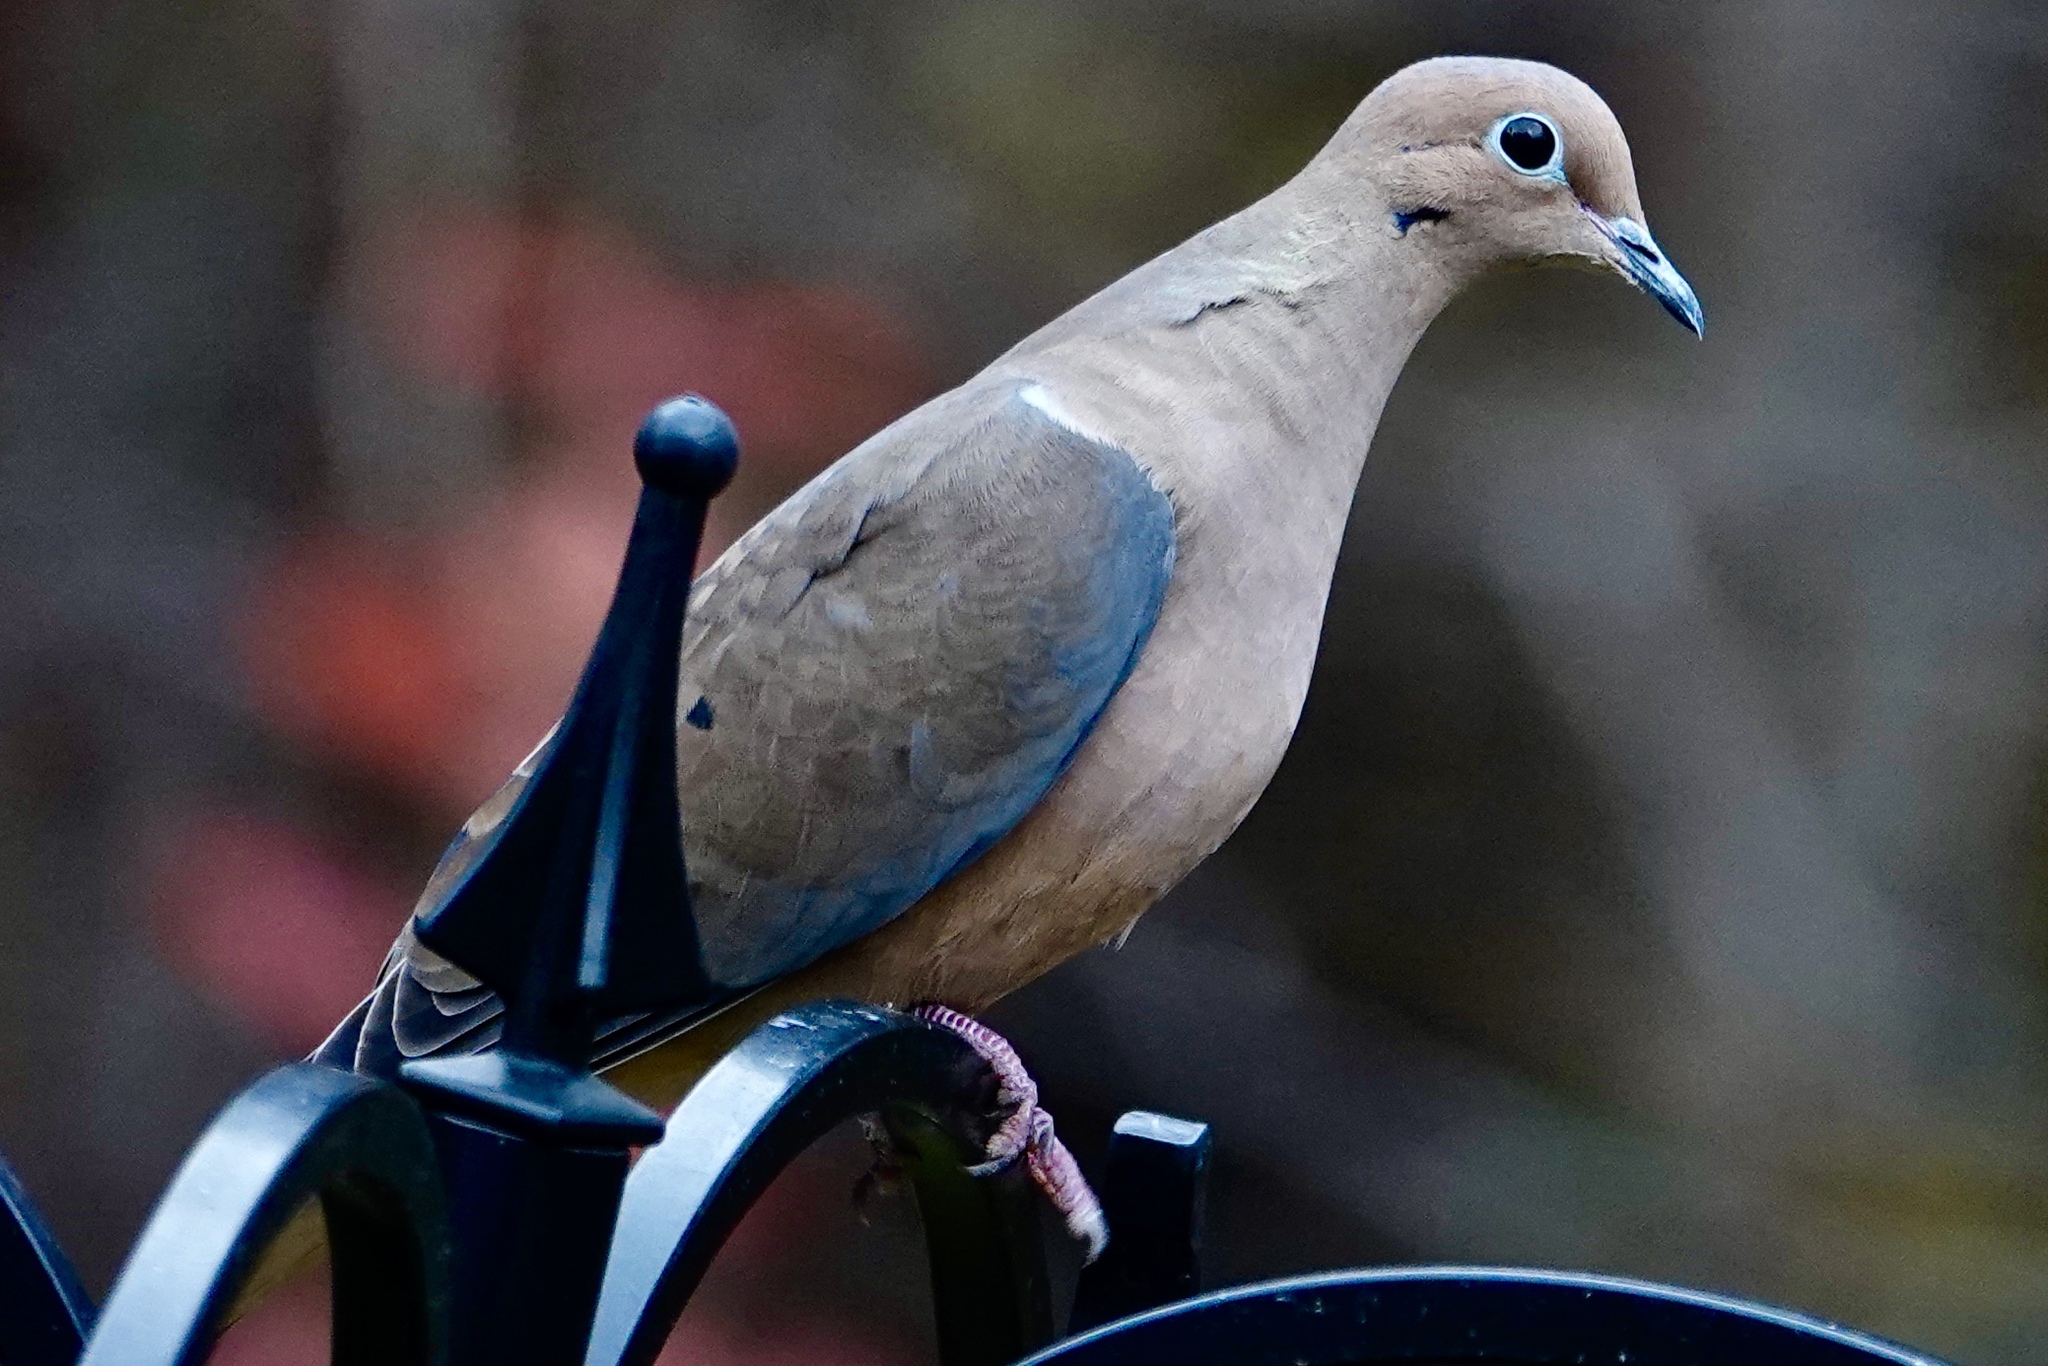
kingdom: Animalia
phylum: Chordata
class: Aves
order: Columbiformes
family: Columbidae
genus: Zenaida
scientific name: Zenaida macroura
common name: Mourning dove
